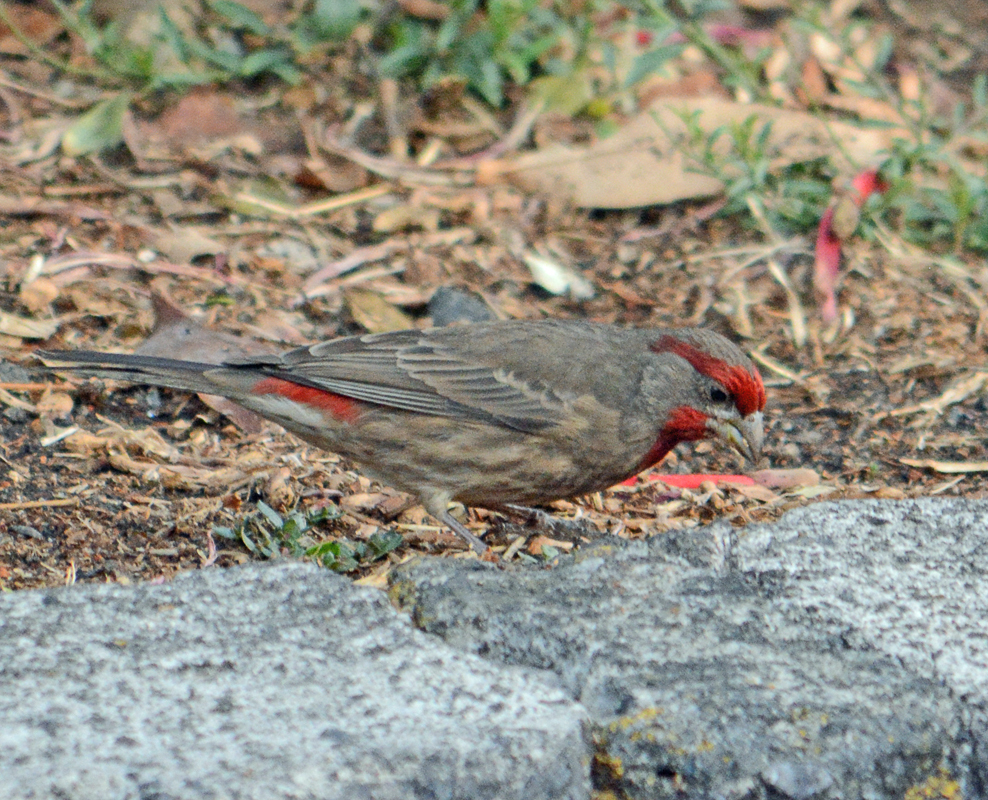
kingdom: Animalia
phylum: Chordata
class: Aves
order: Passeriformes
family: Fringillidae
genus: Haemorhous
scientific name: Haemorhous mexicanus
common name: House finch
